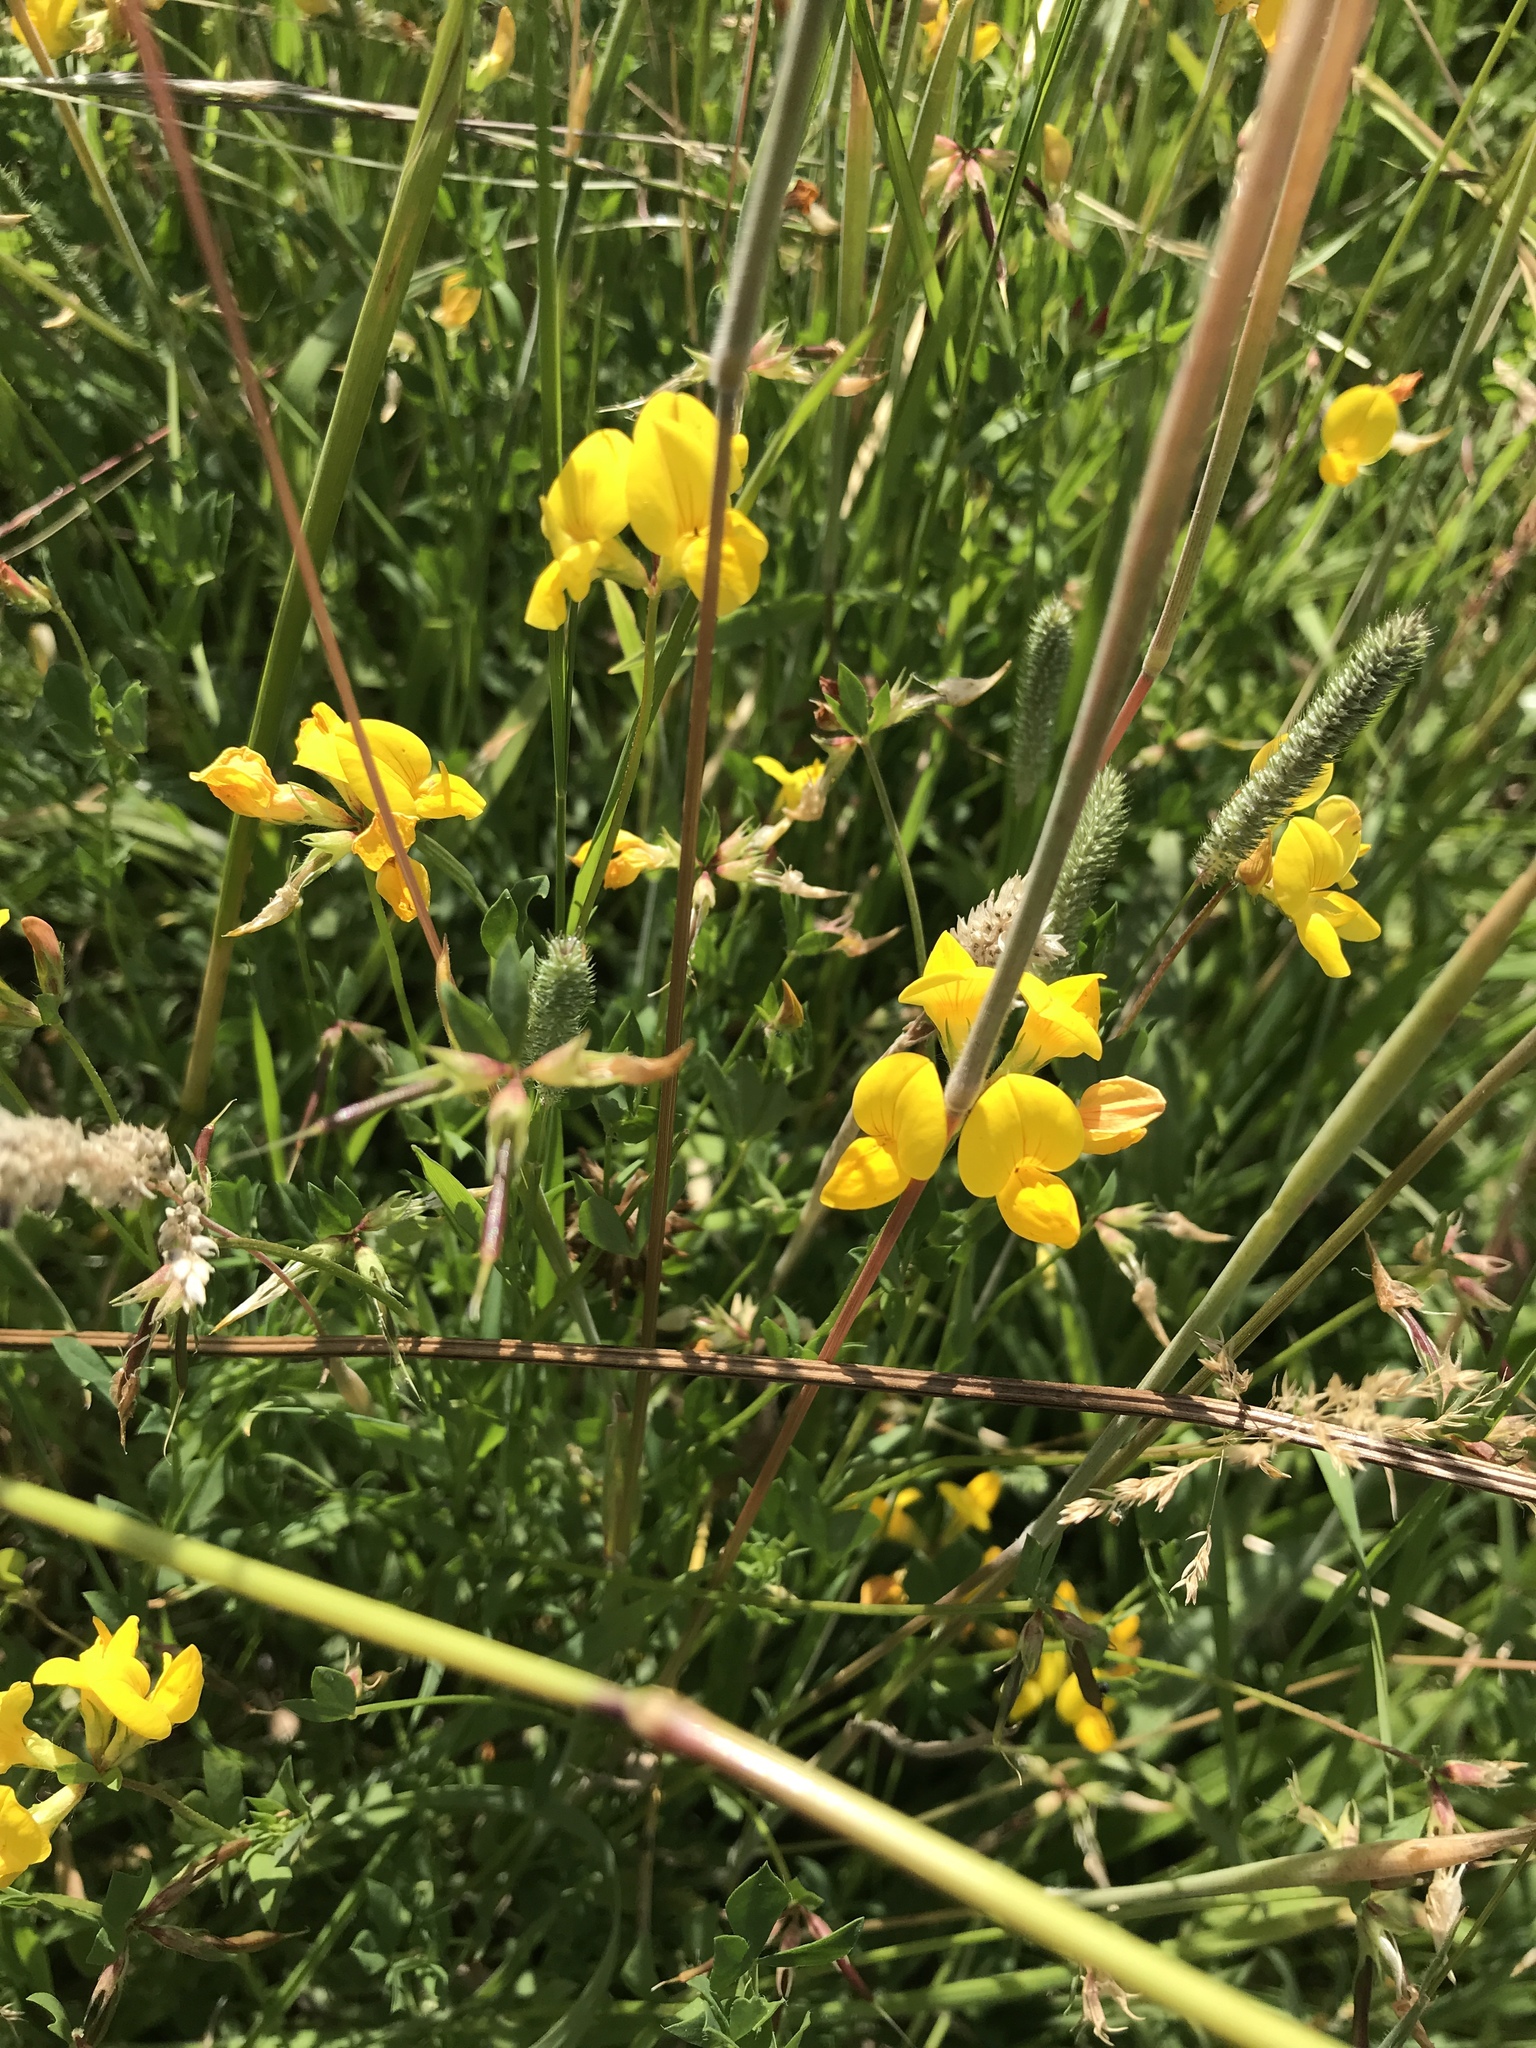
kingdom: Plantae
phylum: Tracheophyta
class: Magnoliopsida
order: Fabales
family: Fabaceae
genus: Lotus
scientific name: Lotus corniculatus
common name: Common bird's-foot-trefoil
